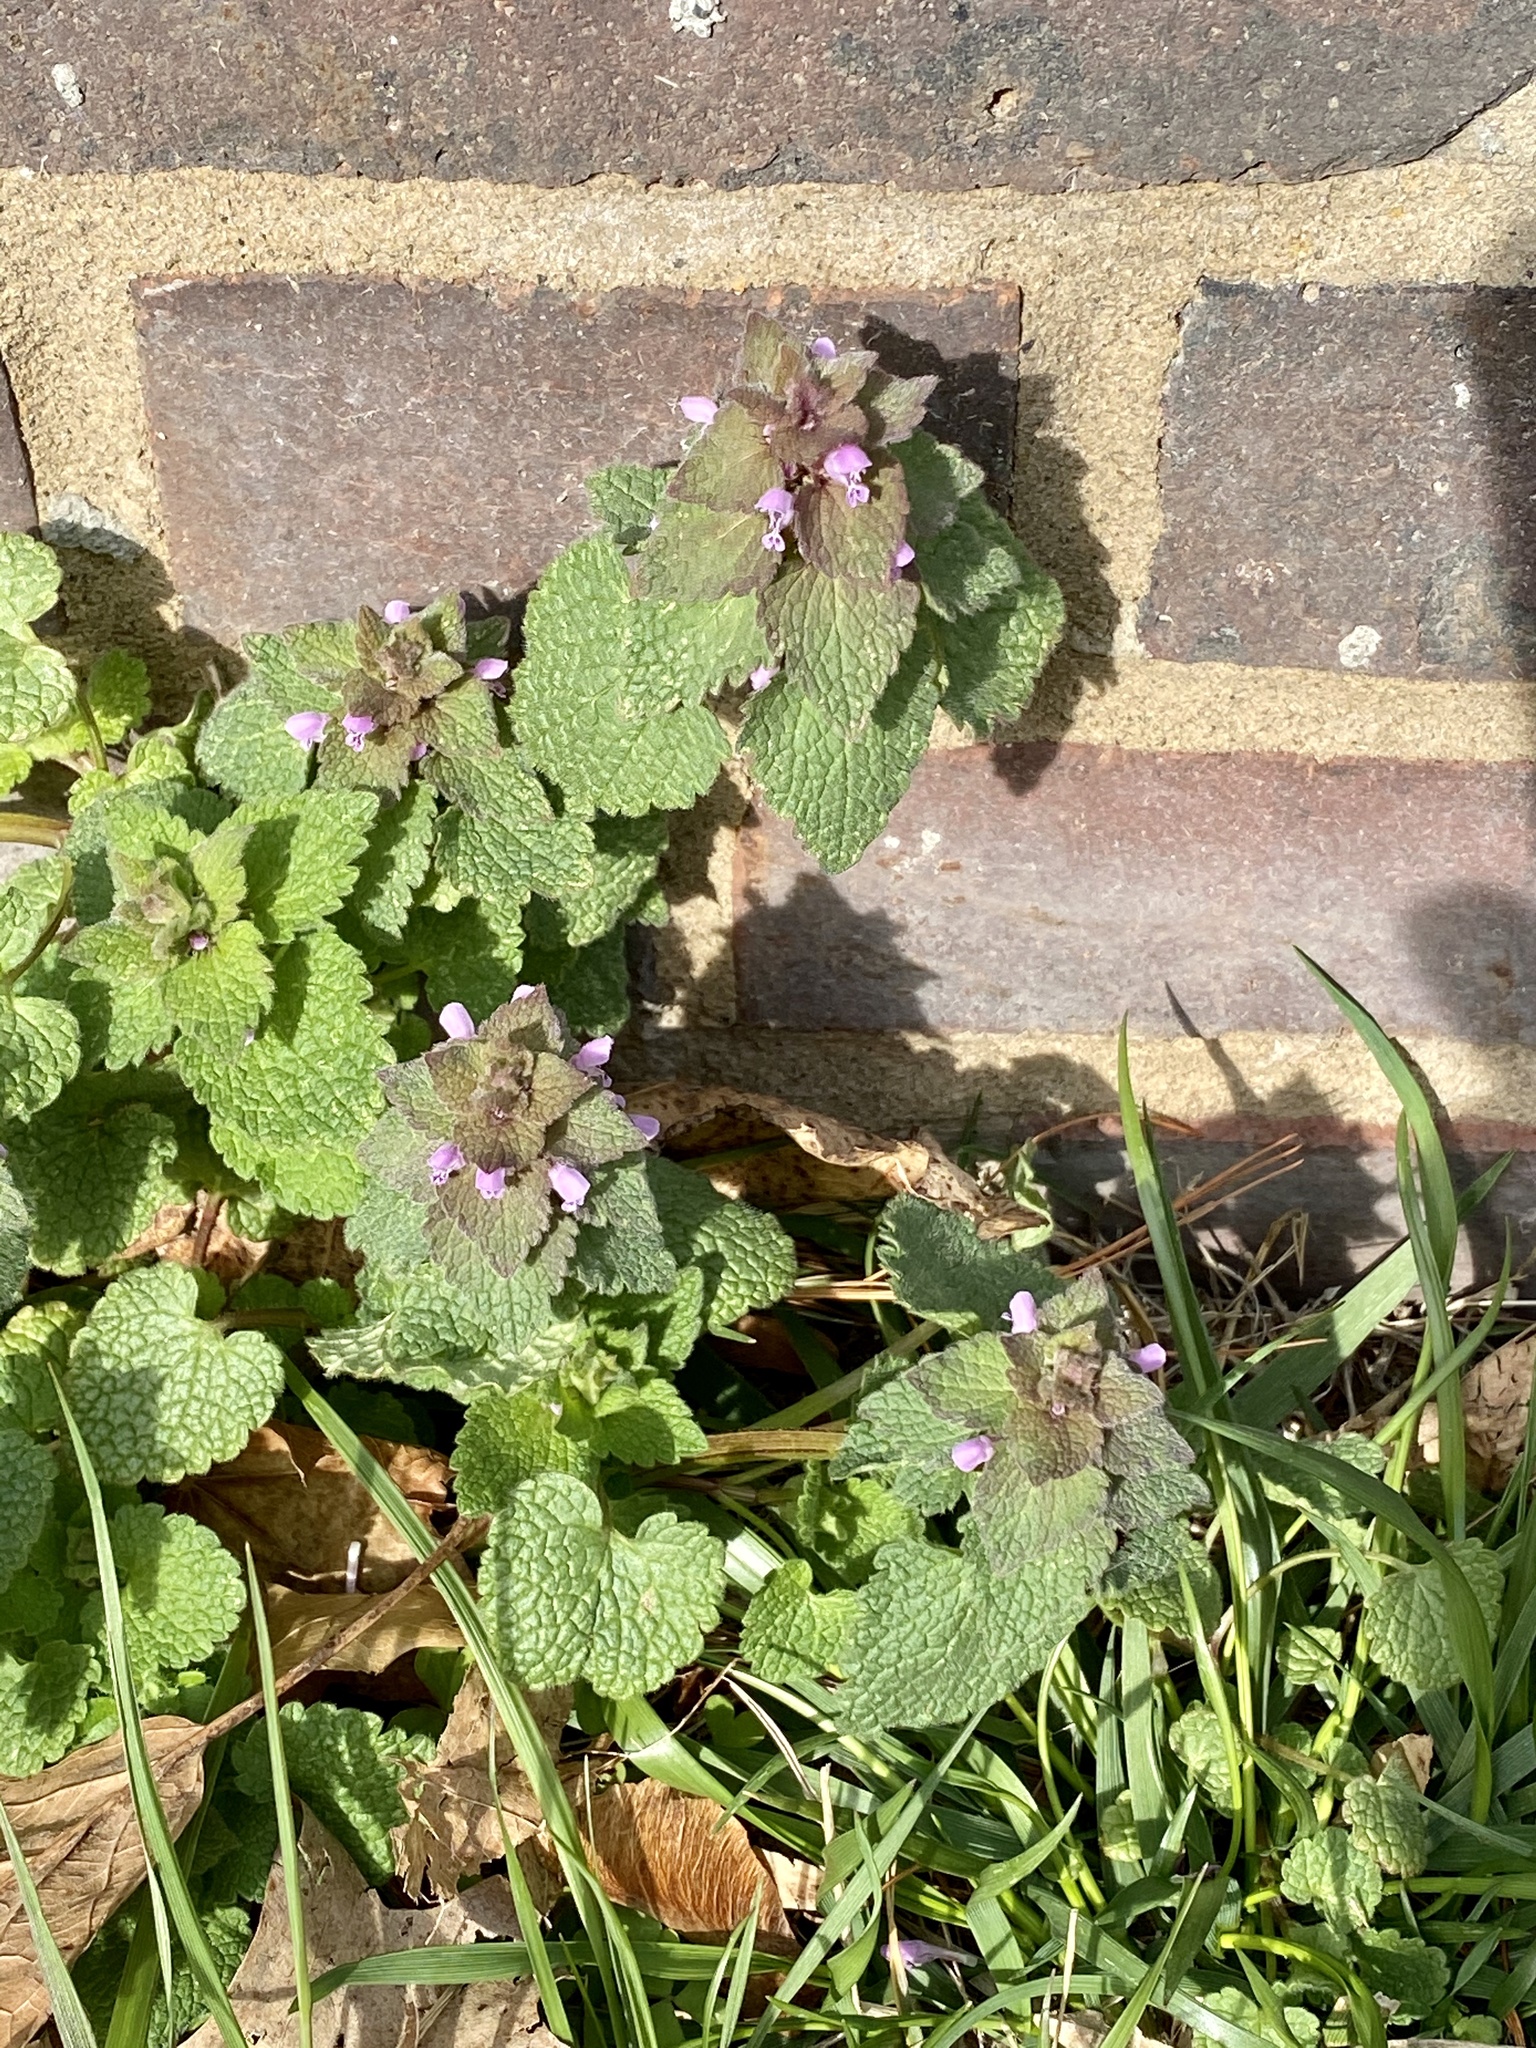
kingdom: Plantae
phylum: Tracheophyta
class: Magnoliopsida
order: Lamiales
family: Lamiaceae
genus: Lamium
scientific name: Lamium purpureum
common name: Red dead-nettle
